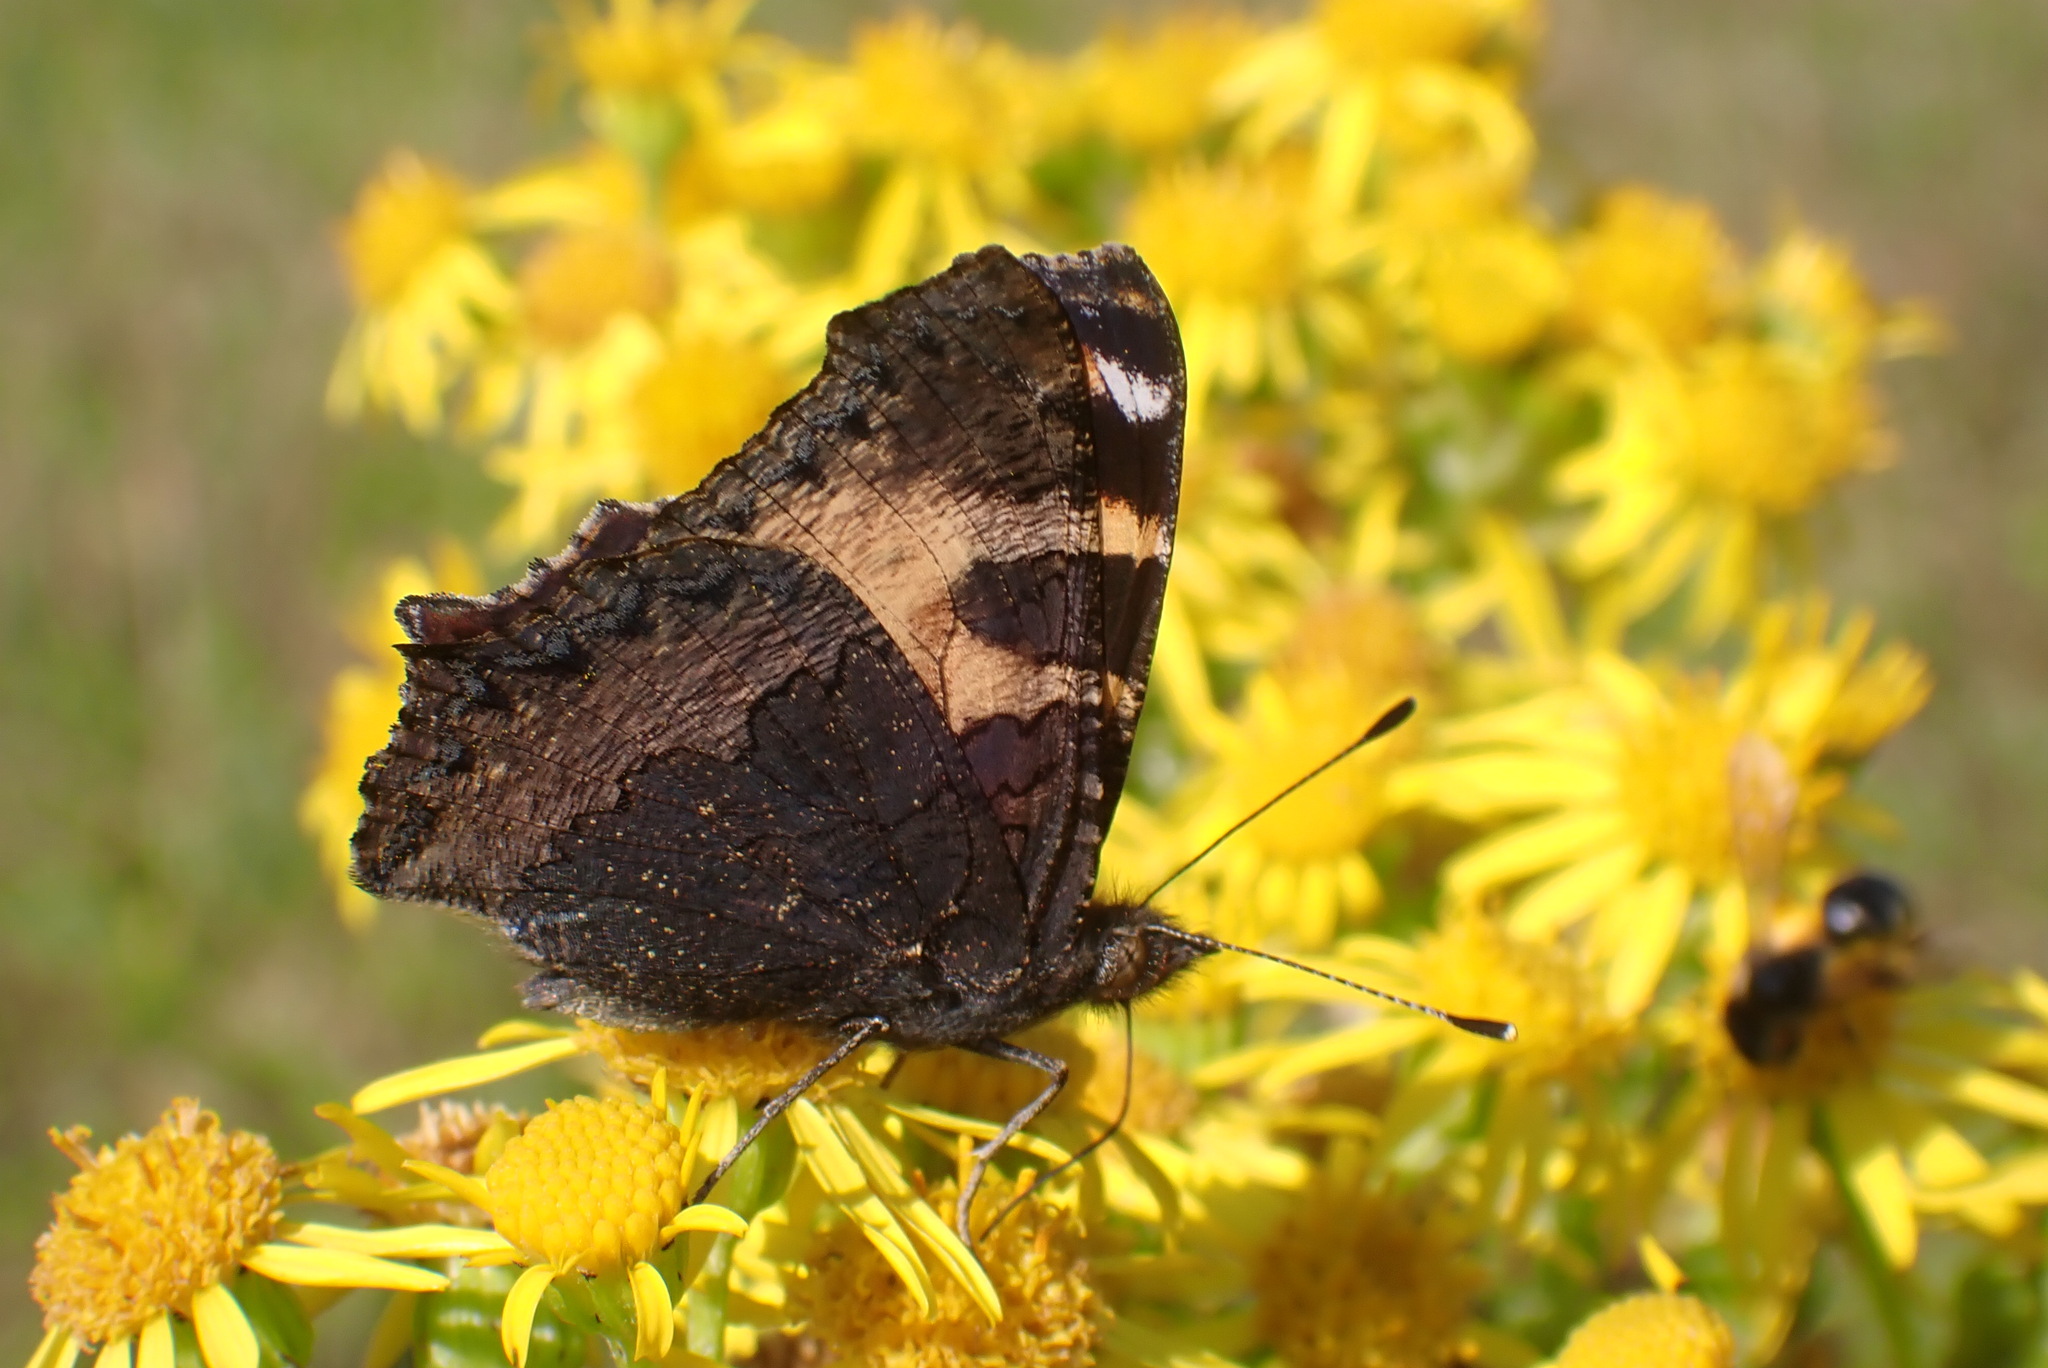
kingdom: Animalia
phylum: Arthropoda
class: Insecta
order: Lepidoptera
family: Nymphalidae
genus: Aglais
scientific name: Aglais urticae
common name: Small tortoiseshell
